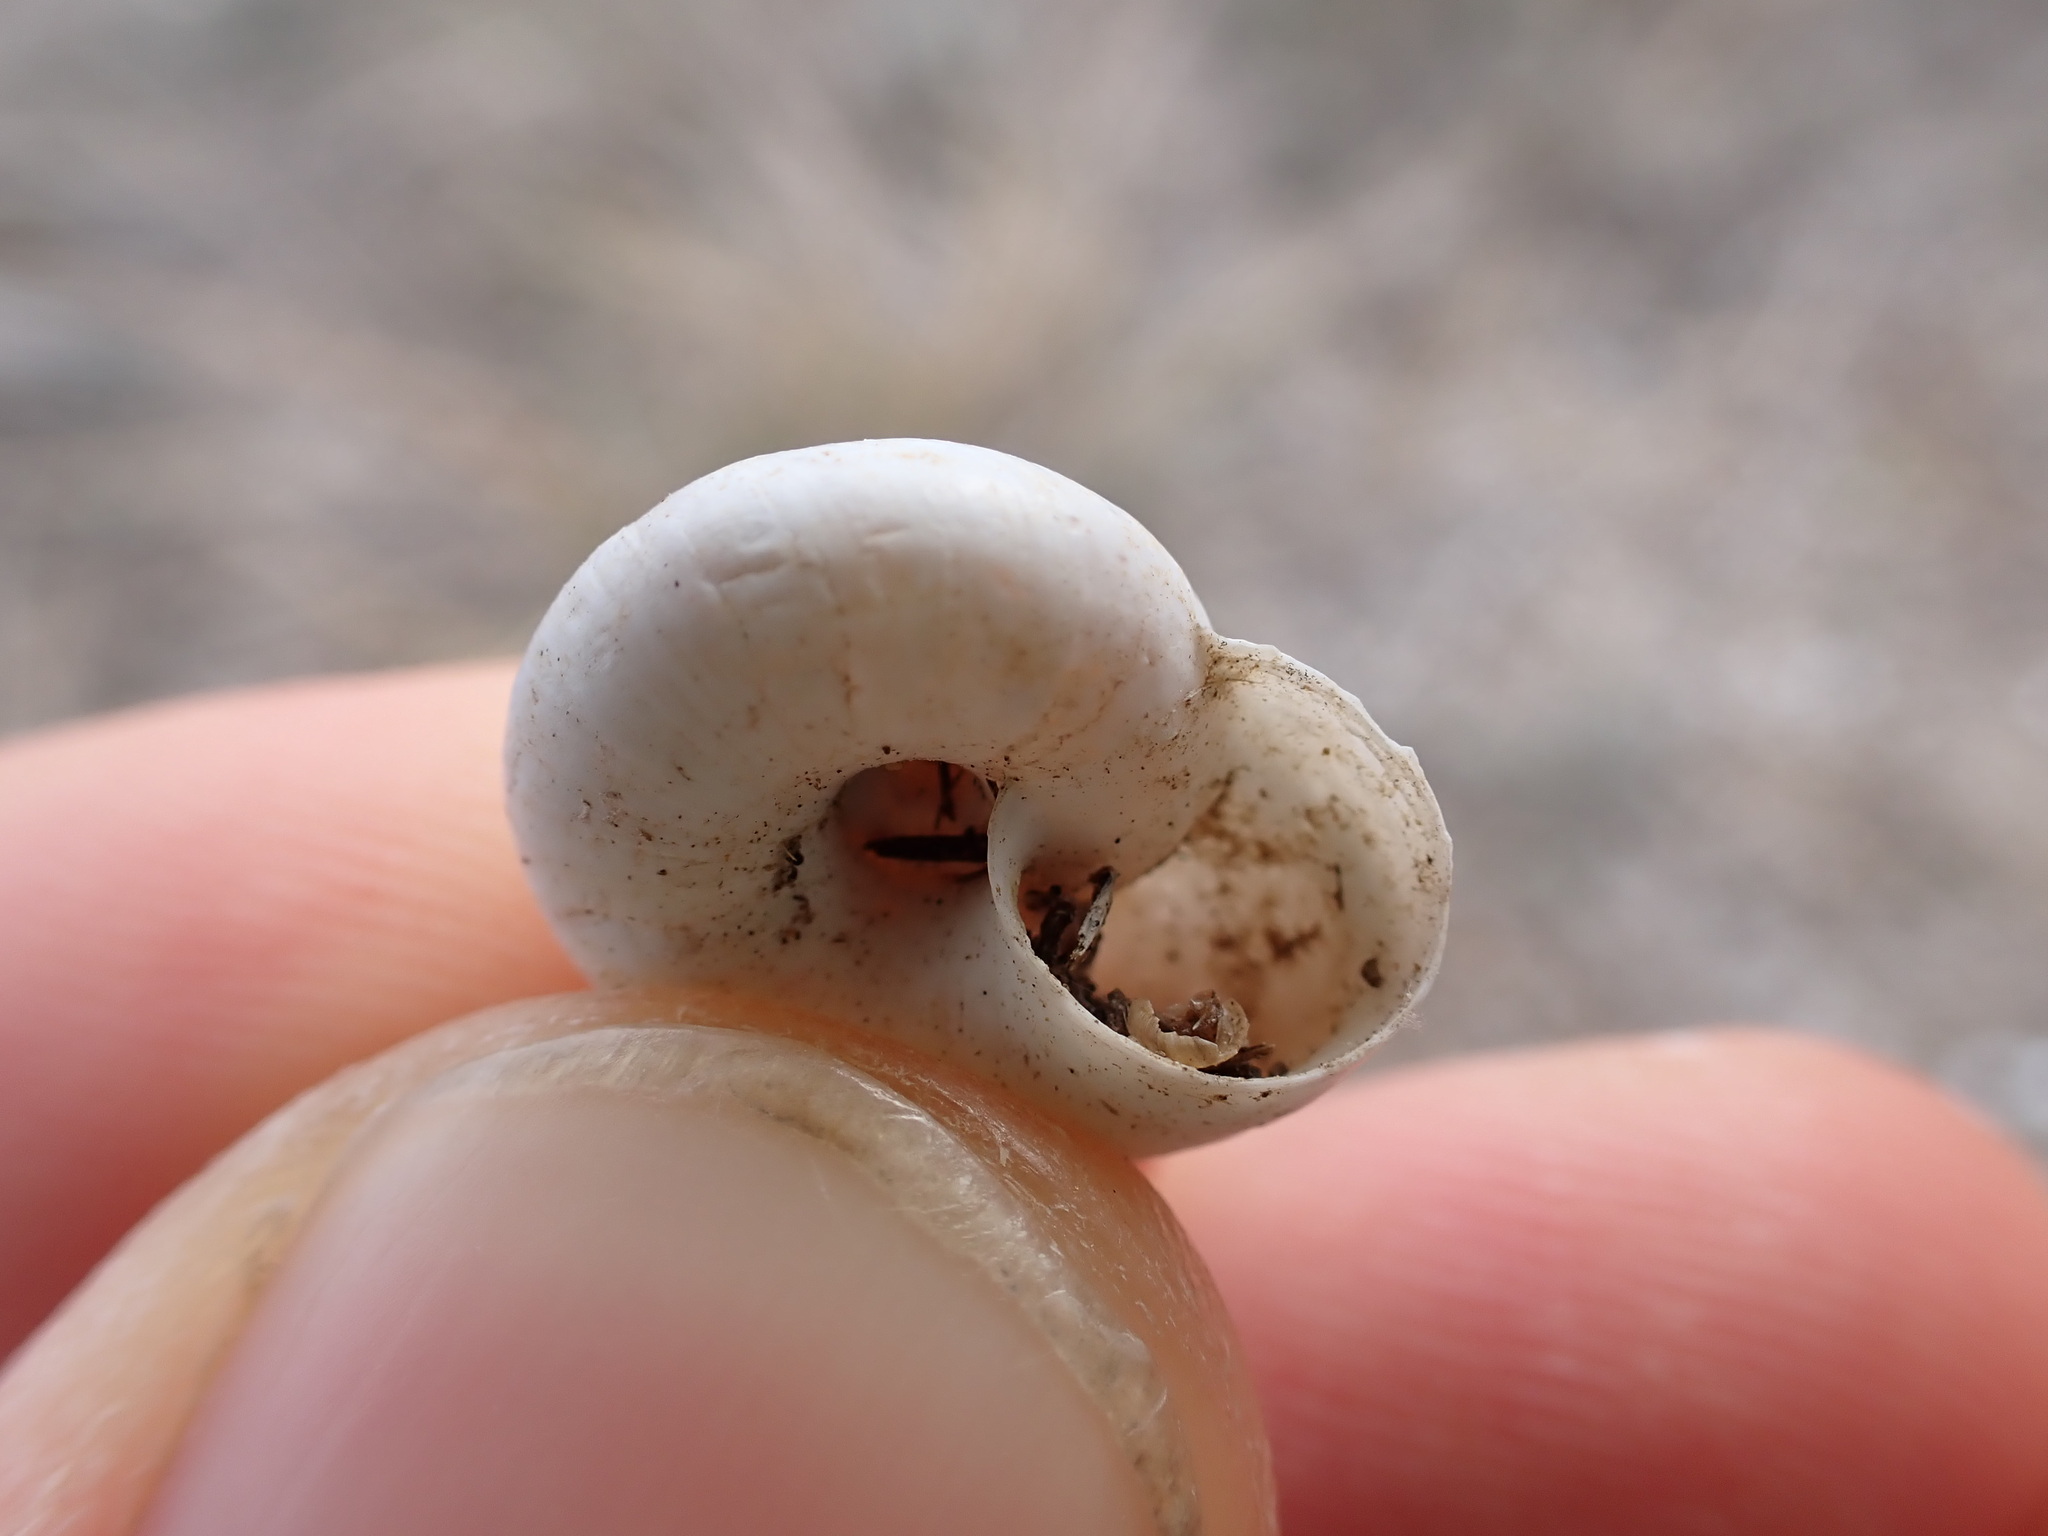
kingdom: Animalia
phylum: Mollusca
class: Gastropoda
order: Stylommatophora
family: Geomitridae
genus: Xeropicta
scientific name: Xeropicta derbentina
